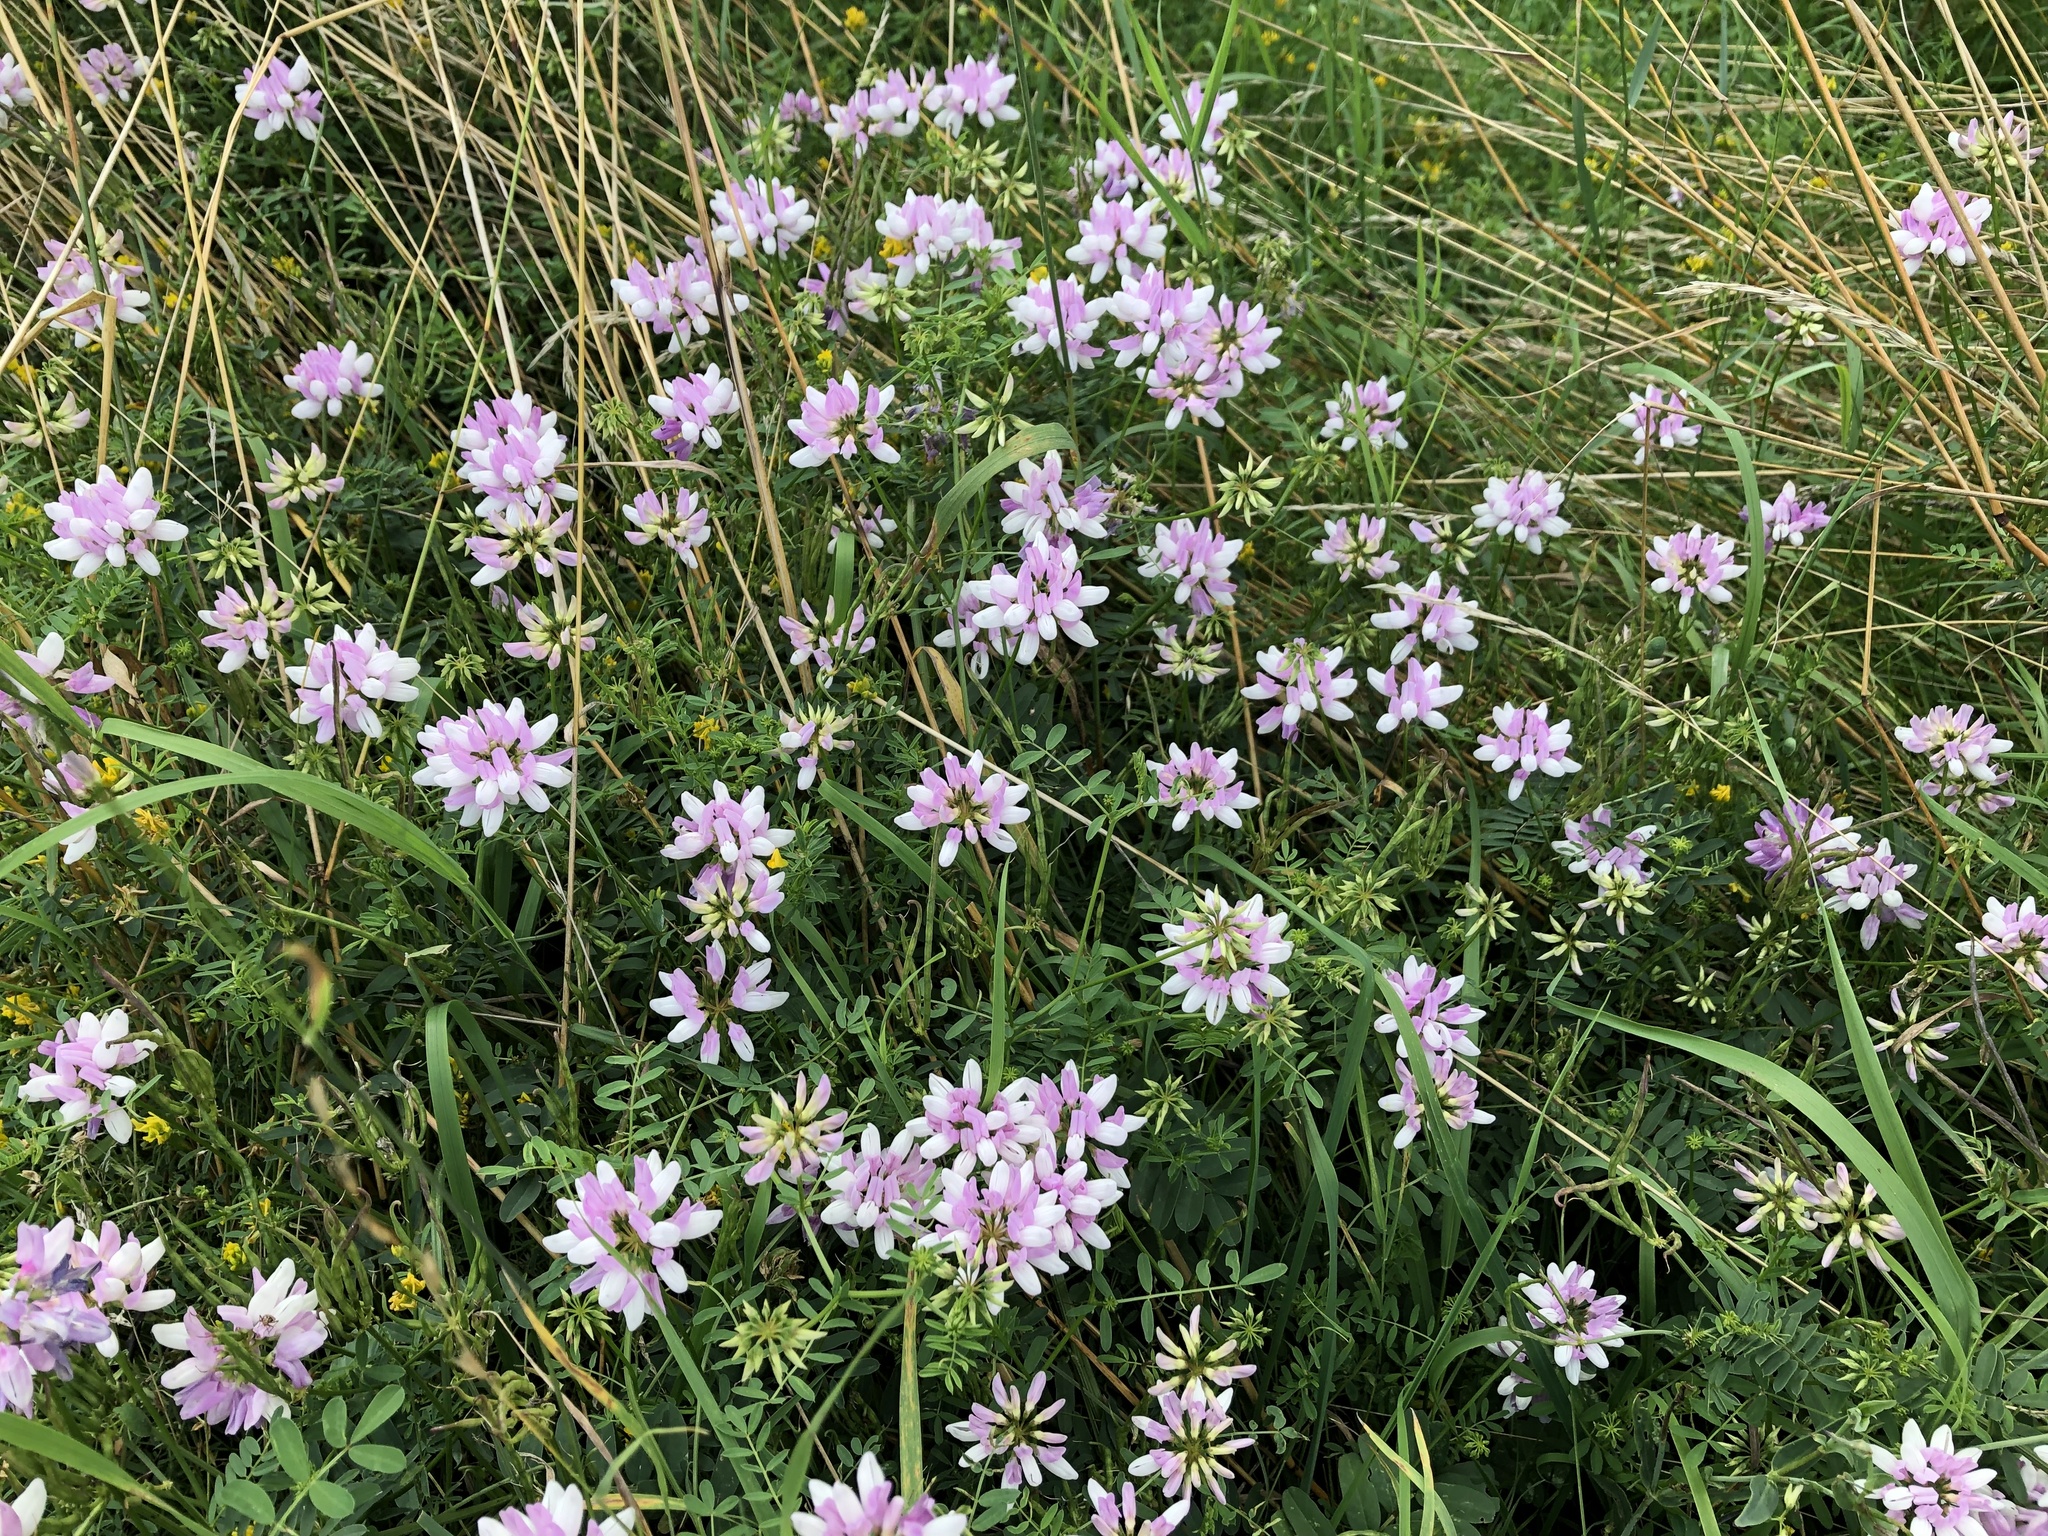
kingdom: Plantae
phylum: Tracheophyta
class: Magnoliopsida
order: Fabales
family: Fabaceae
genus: Coronilla
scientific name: Coronilla varia
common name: Crownvetch
